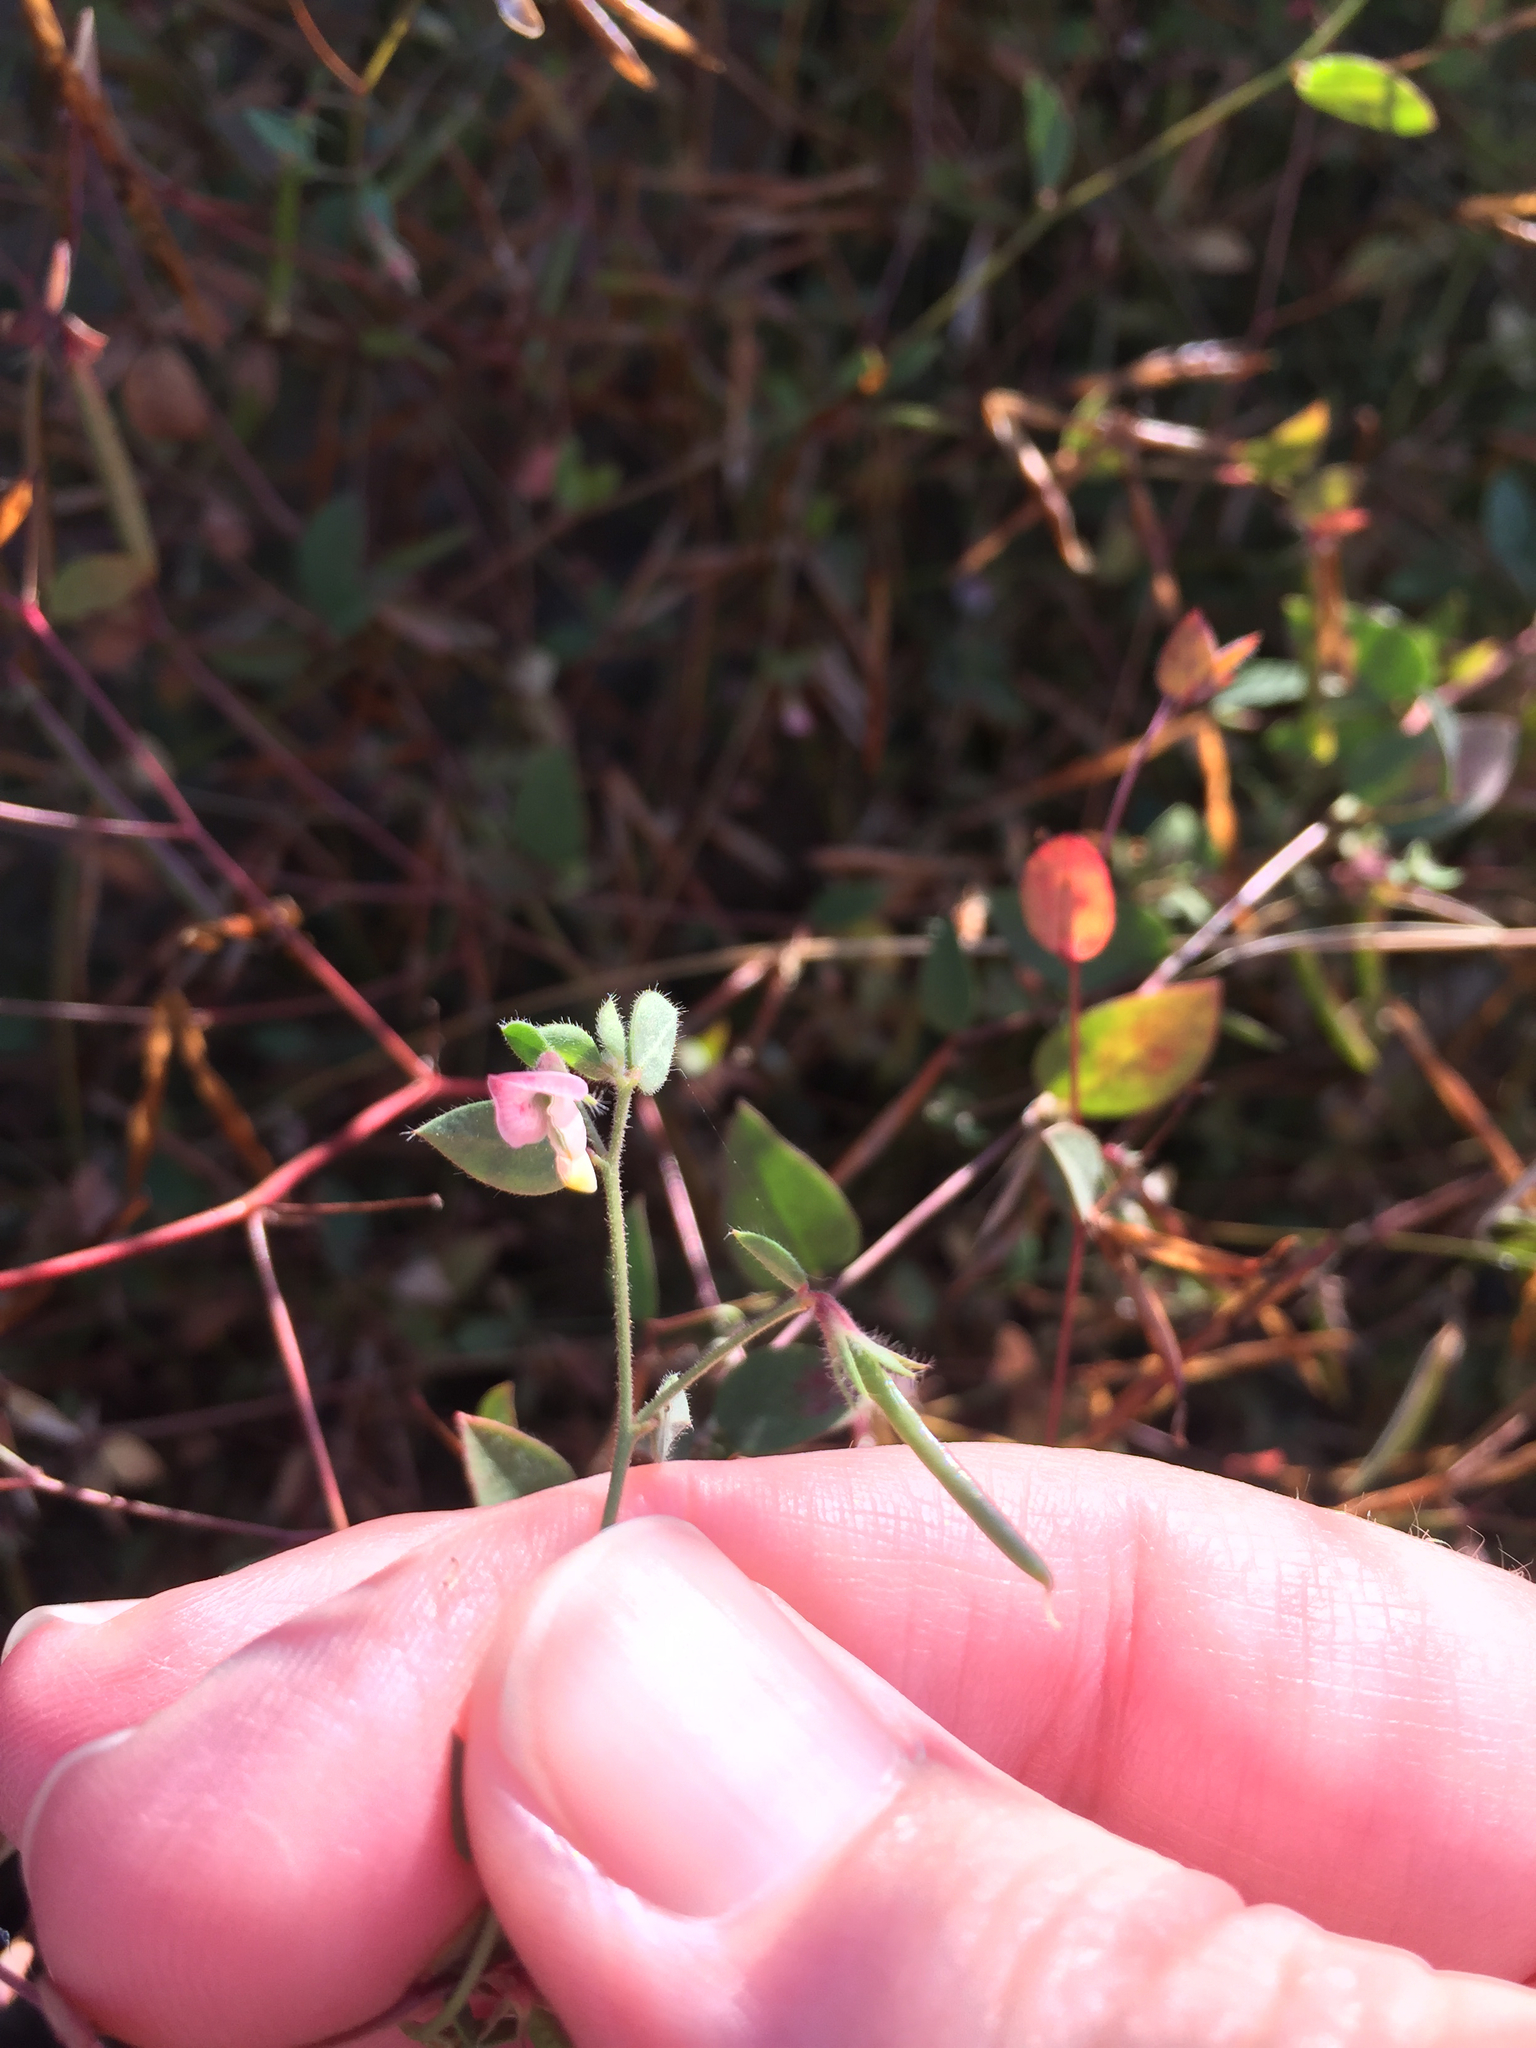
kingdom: Plantae
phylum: Tracheophyta
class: Magnoliopsida
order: Fabales
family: Fabaceae
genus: Acmispon
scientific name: Acmispon americanus
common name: American bird's-foot trefoil
